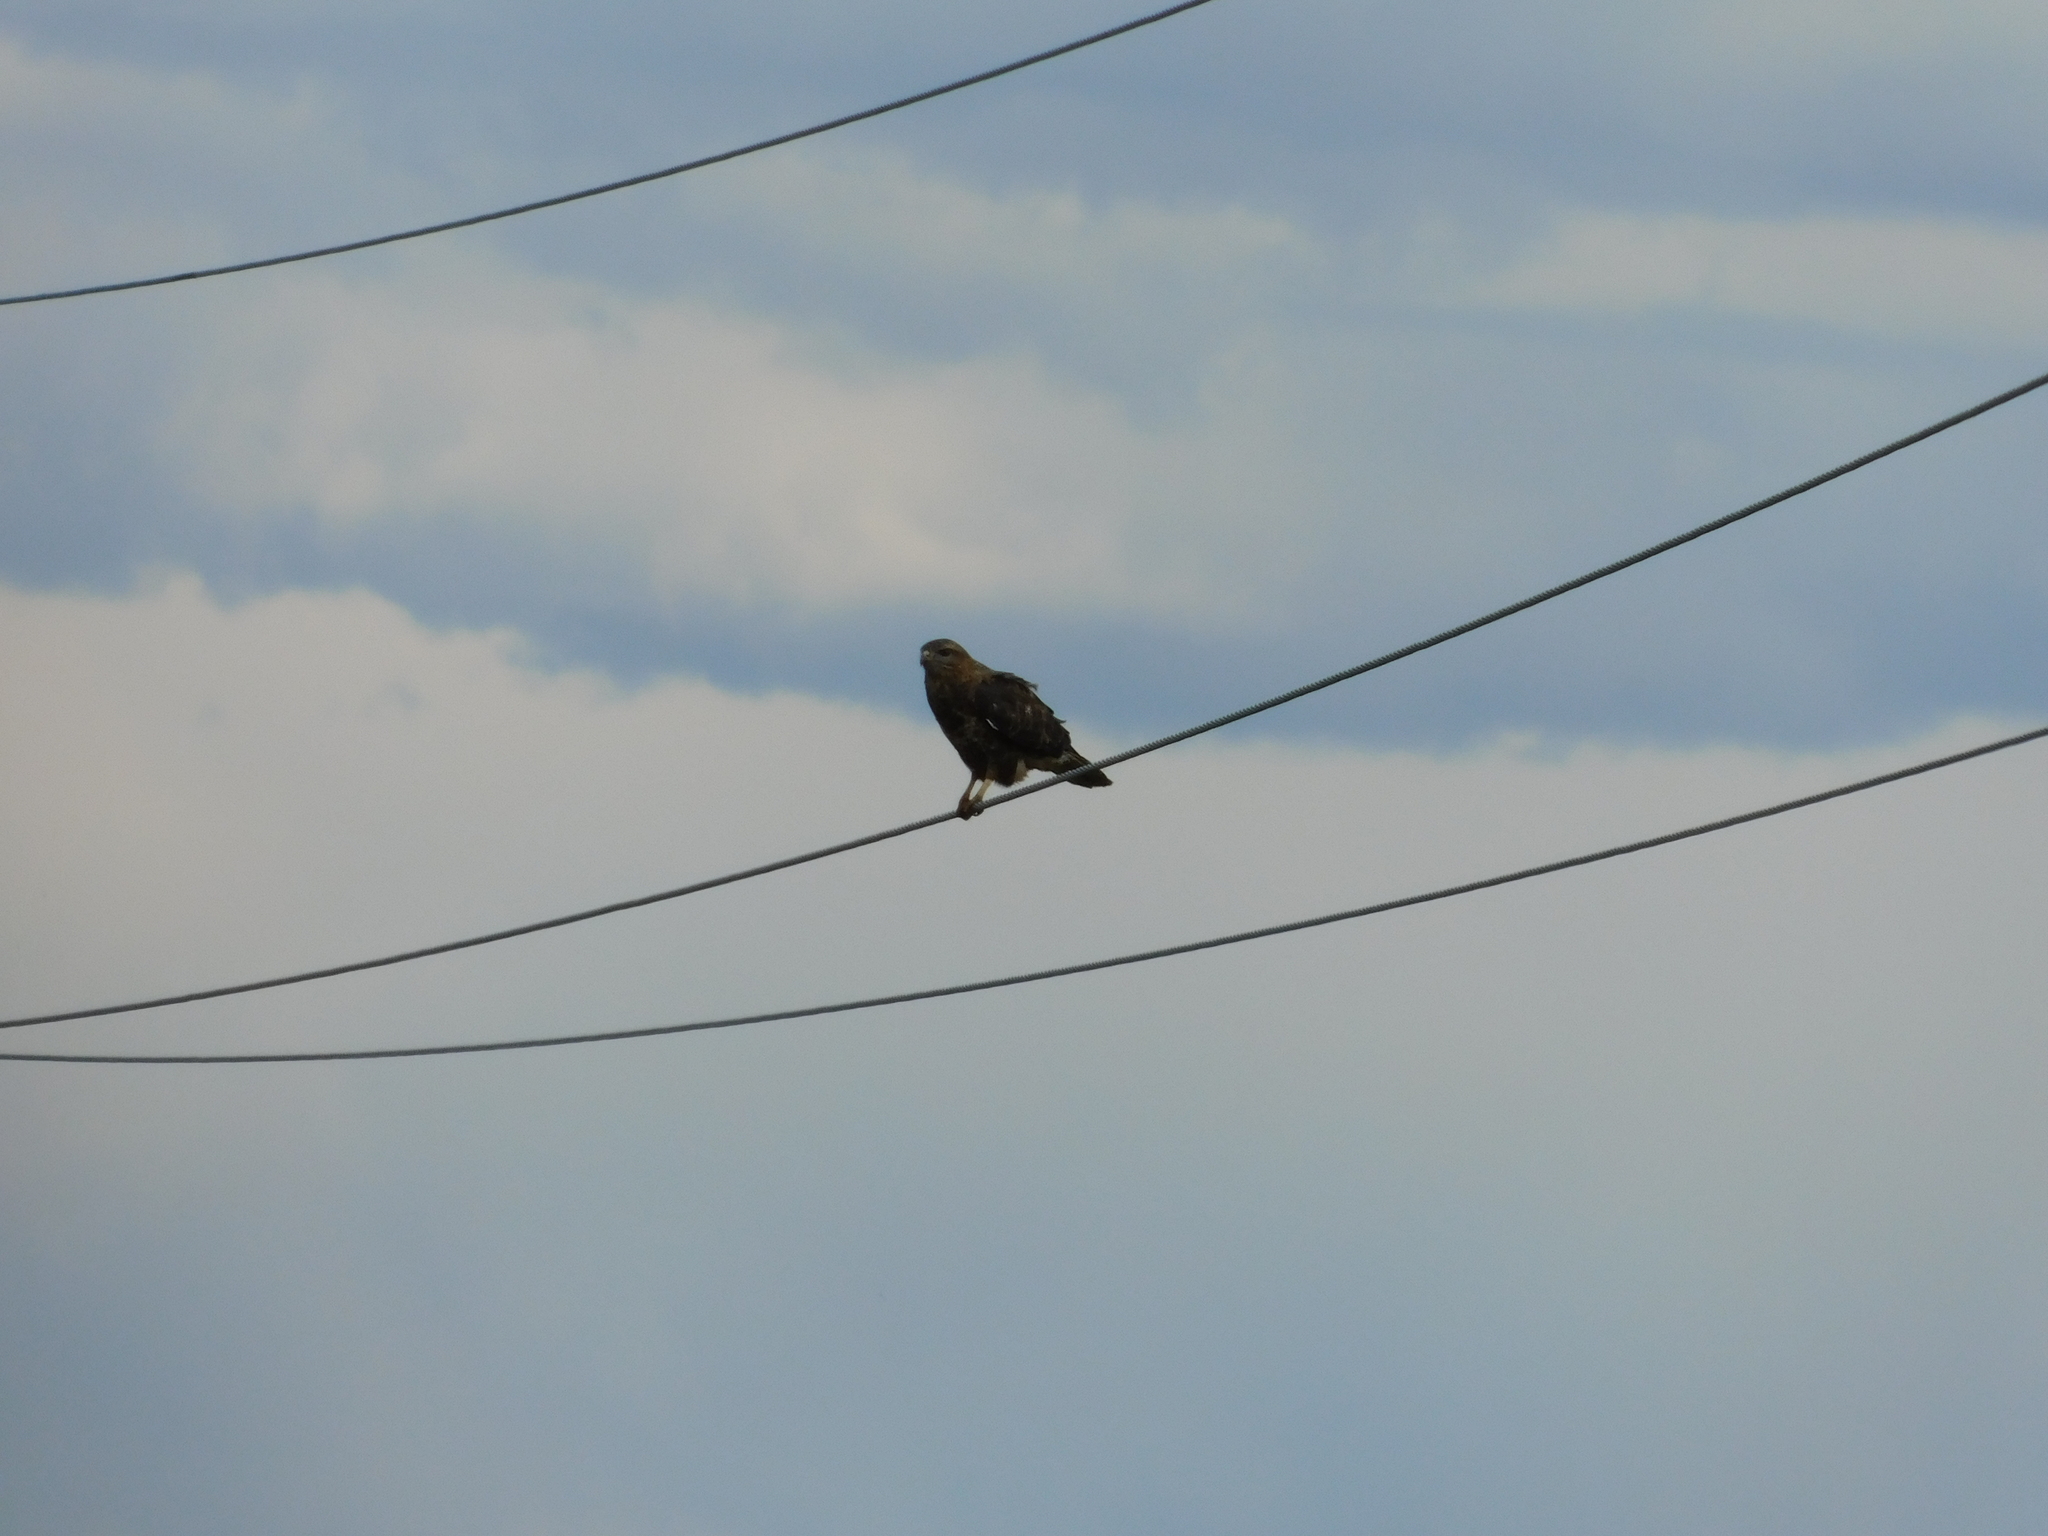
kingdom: Animalia
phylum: Chordata
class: Aves
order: Accipitriformes
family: Accipitridae
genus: Buteo
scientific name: Buteo buteo
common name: Common buzzard
